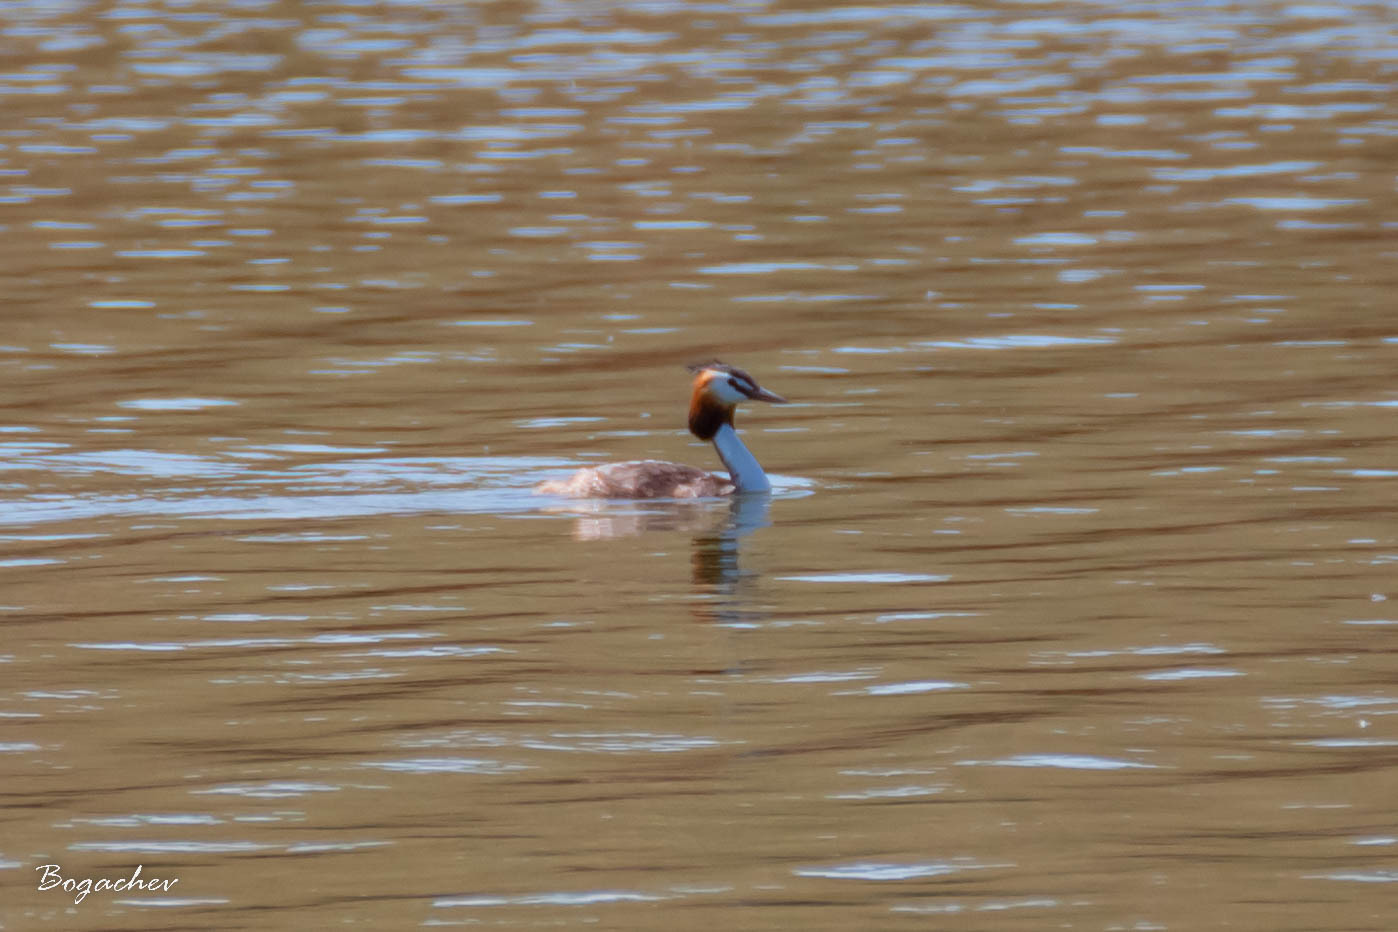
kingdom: Animalia
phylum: Chordata
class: Aves
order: Podicipediformes
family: Podicipedidae
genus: Podiceps
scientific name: Podiceps cristatus
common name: Great crested grebe
